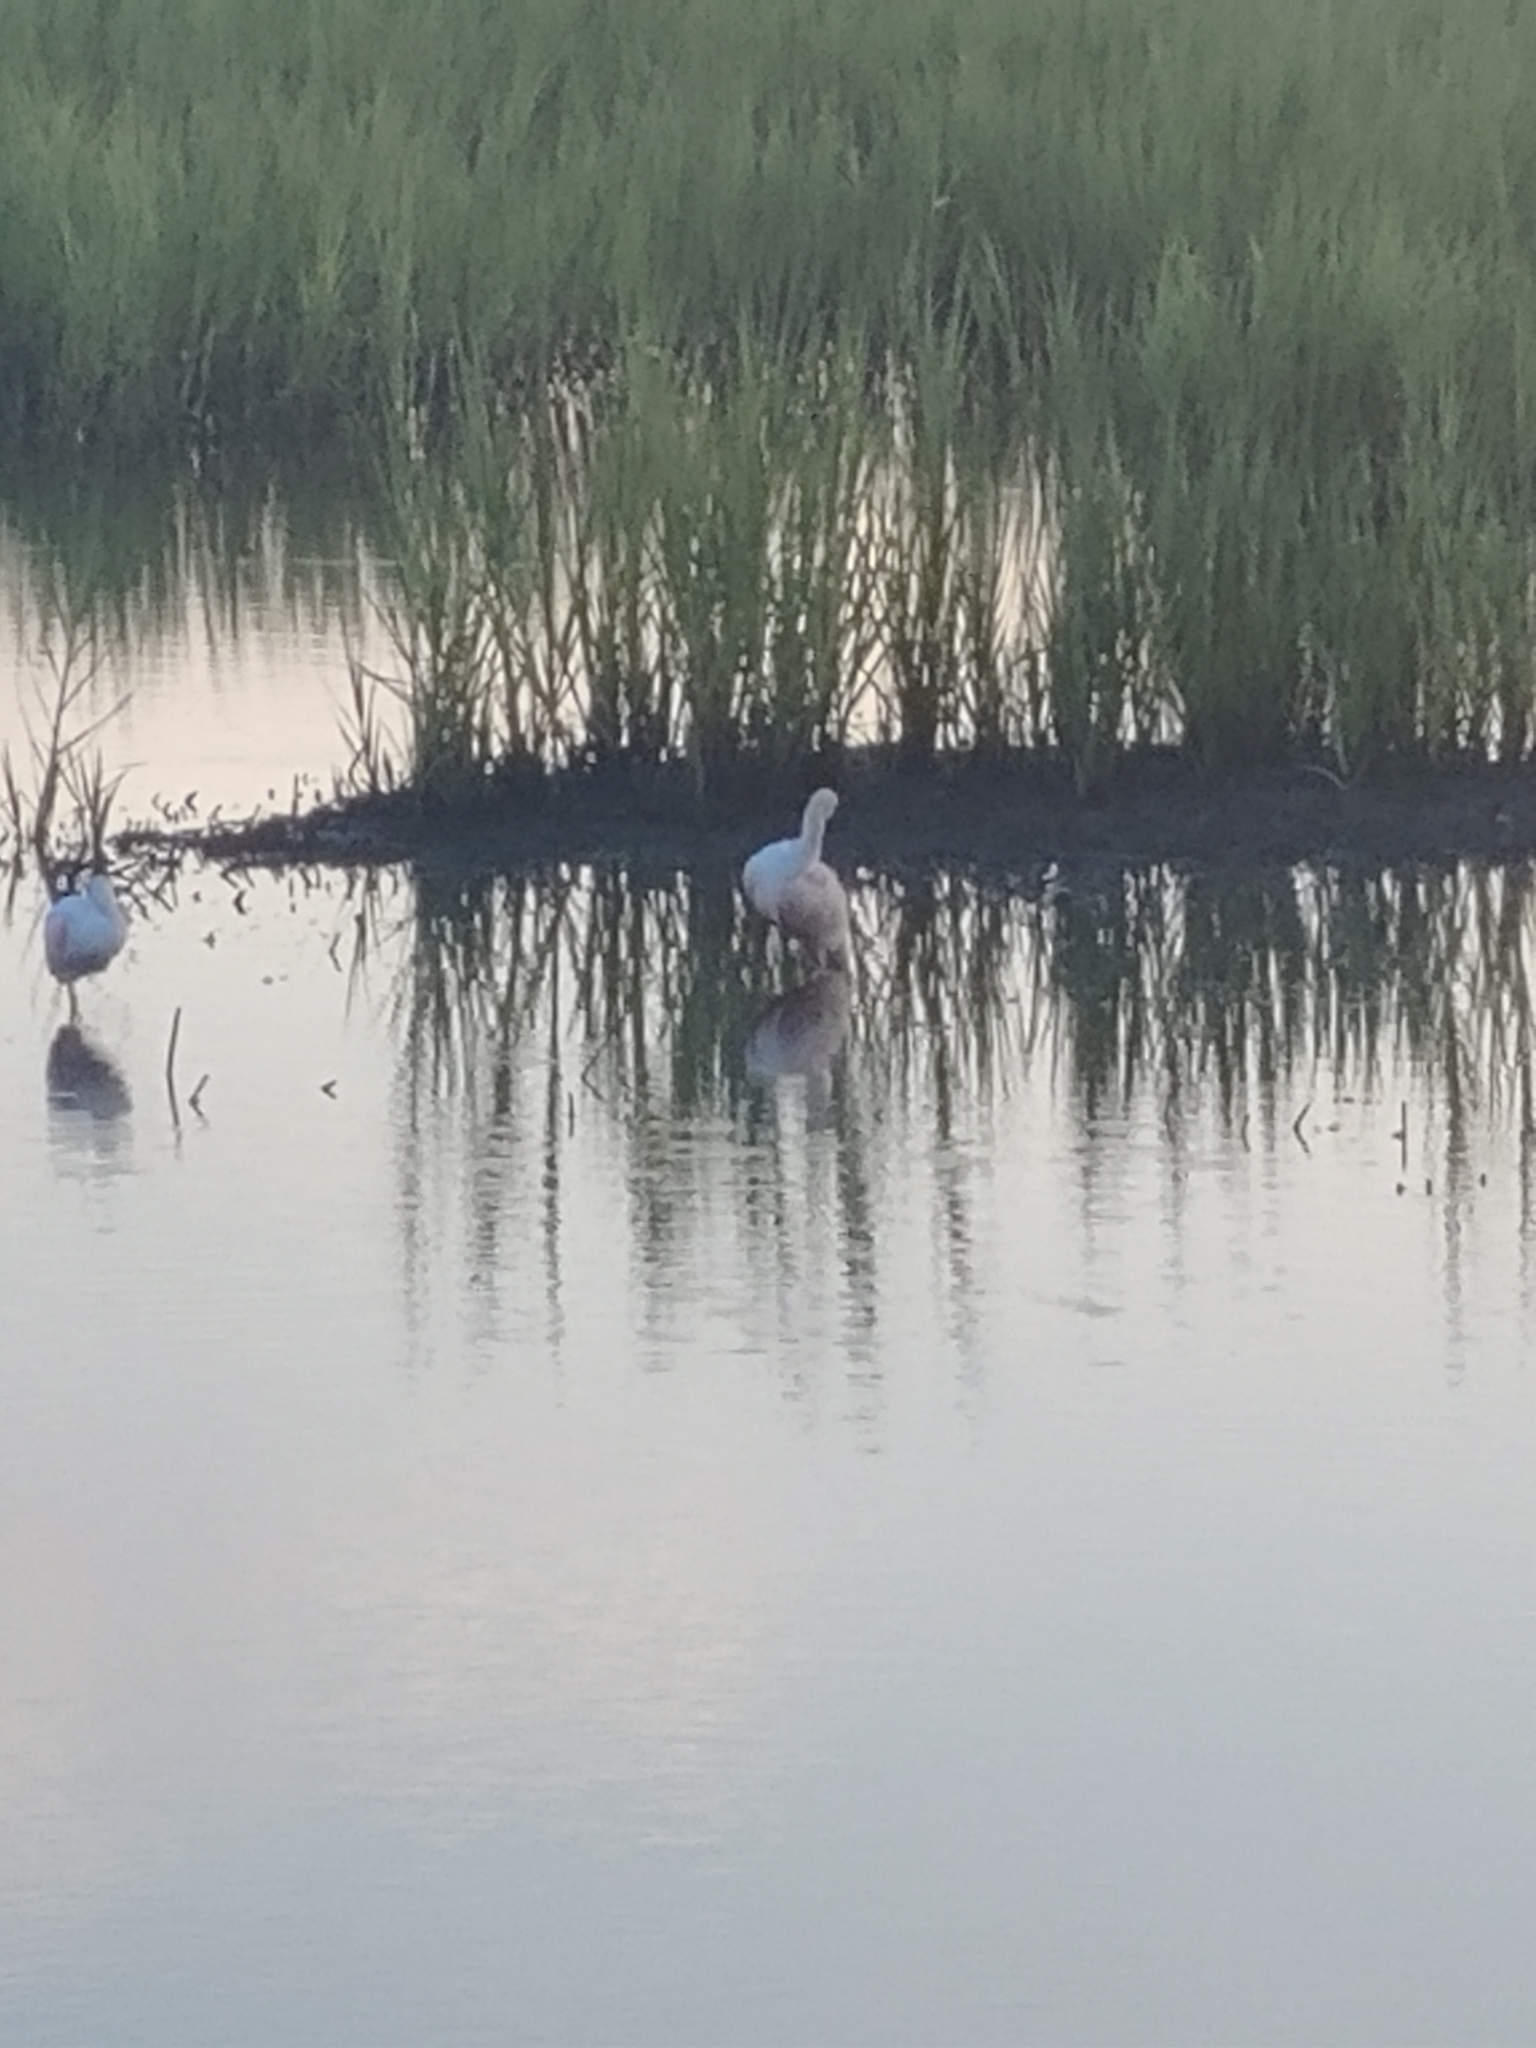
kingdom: Animalia
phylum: Chordata
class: Aves
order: Pelecaniformes
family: Threskiornithidae
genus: Platalea
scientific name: Platalea ajaja
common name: Roseate spoonbill
